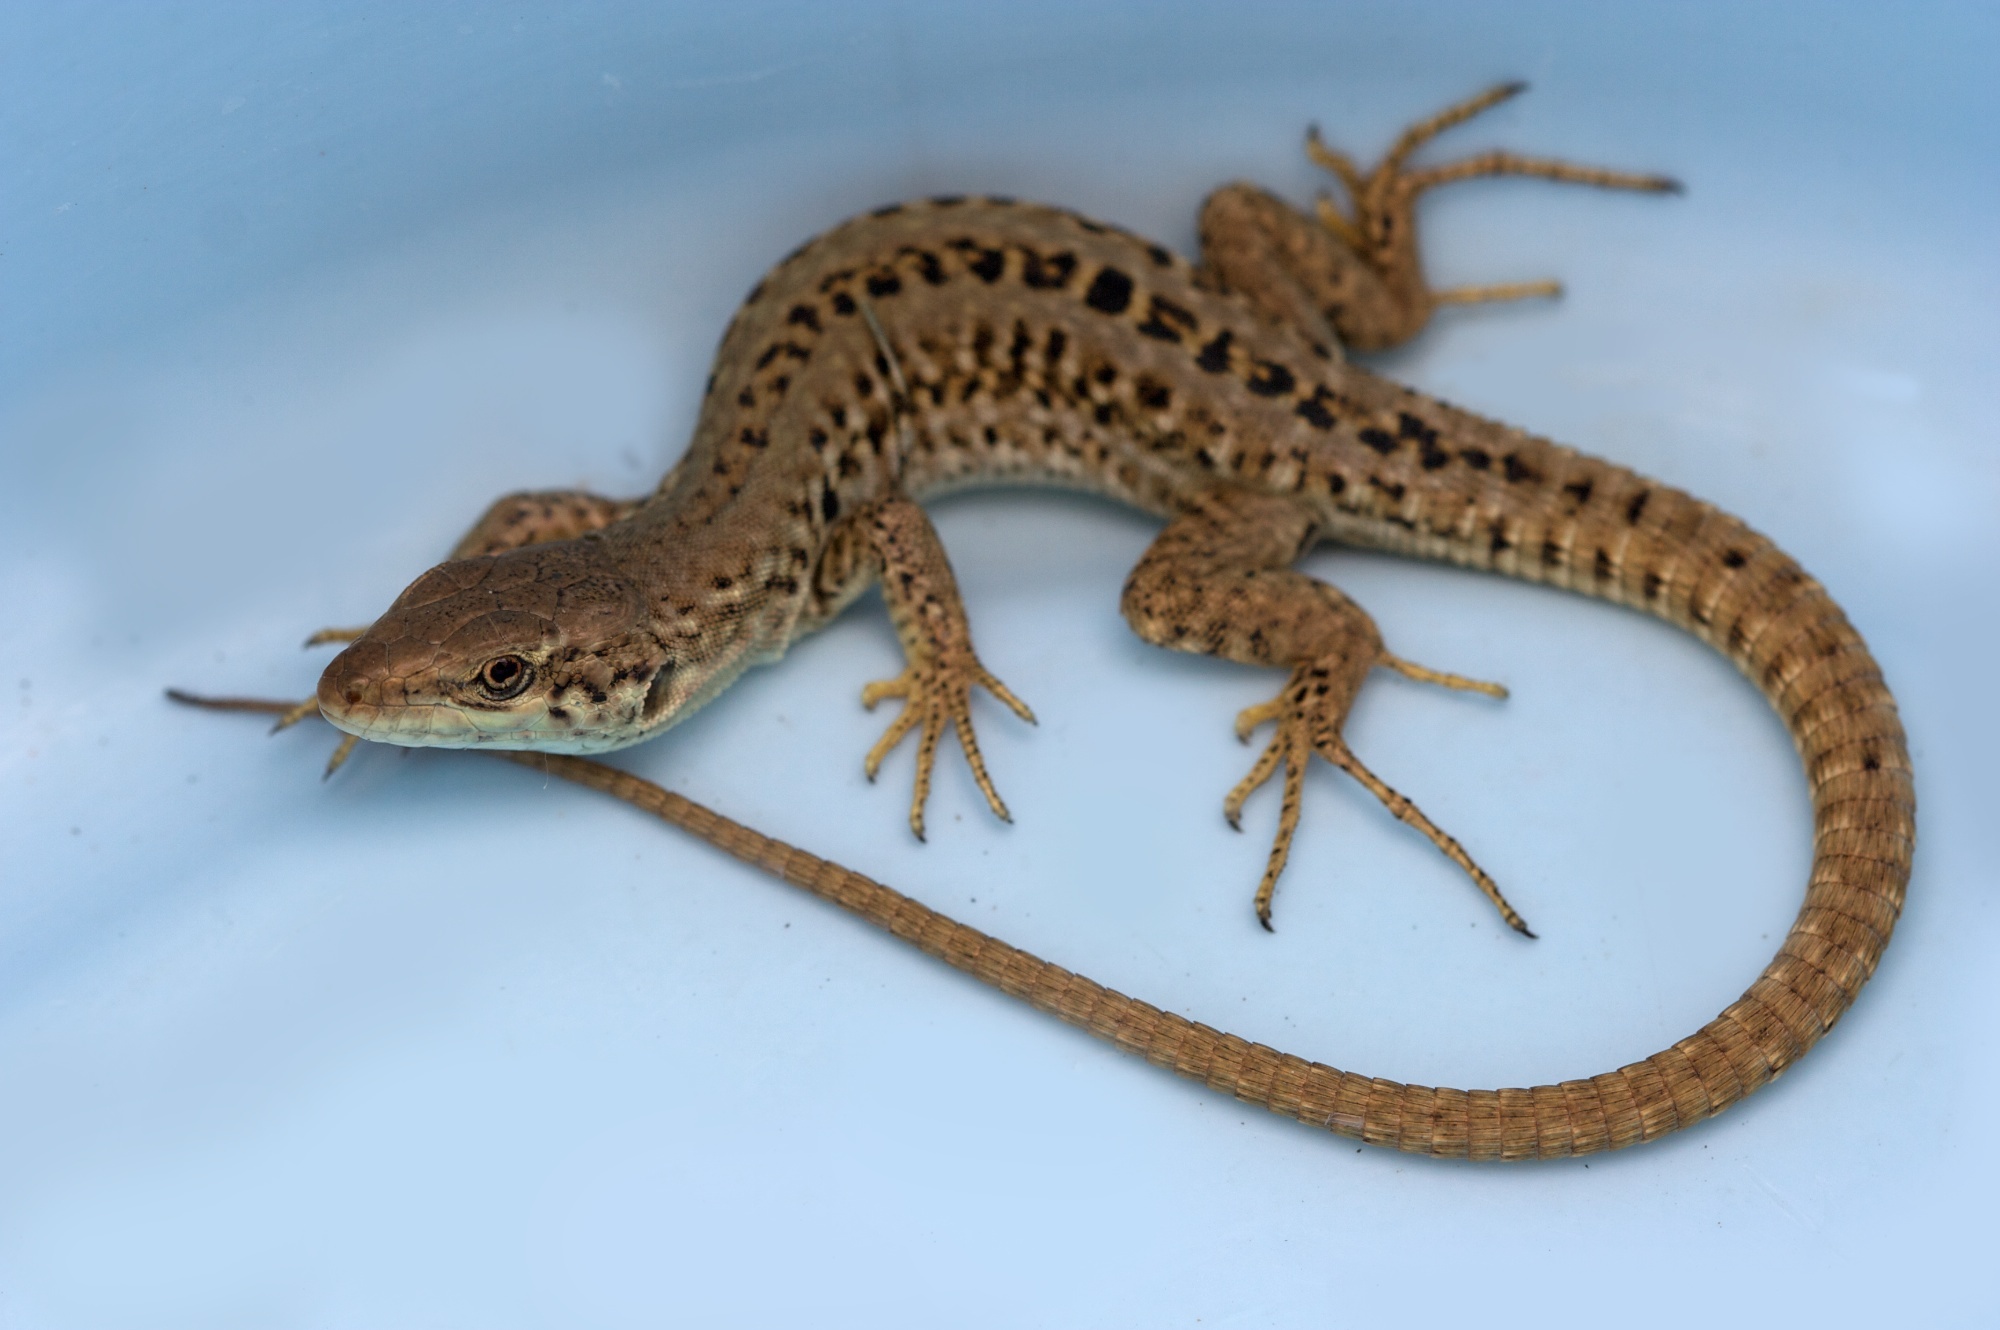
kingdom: Animalia
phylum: Chordata
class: Squamata
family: Lacertidae
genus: Podarcis
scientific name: Podarcis siculus
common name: Italian wall lizard
